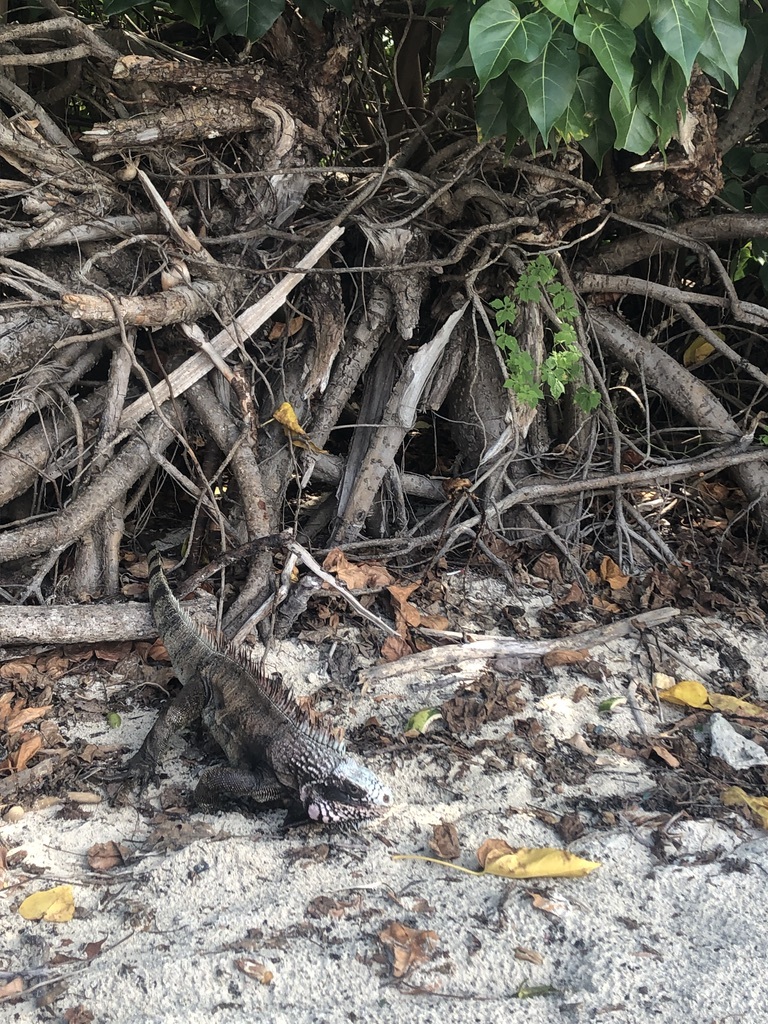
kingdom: Animalia
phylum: Chordata
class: Squamata
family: Iguanidae
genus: Iguana
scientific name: Iguana iguana
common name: Green iguana
